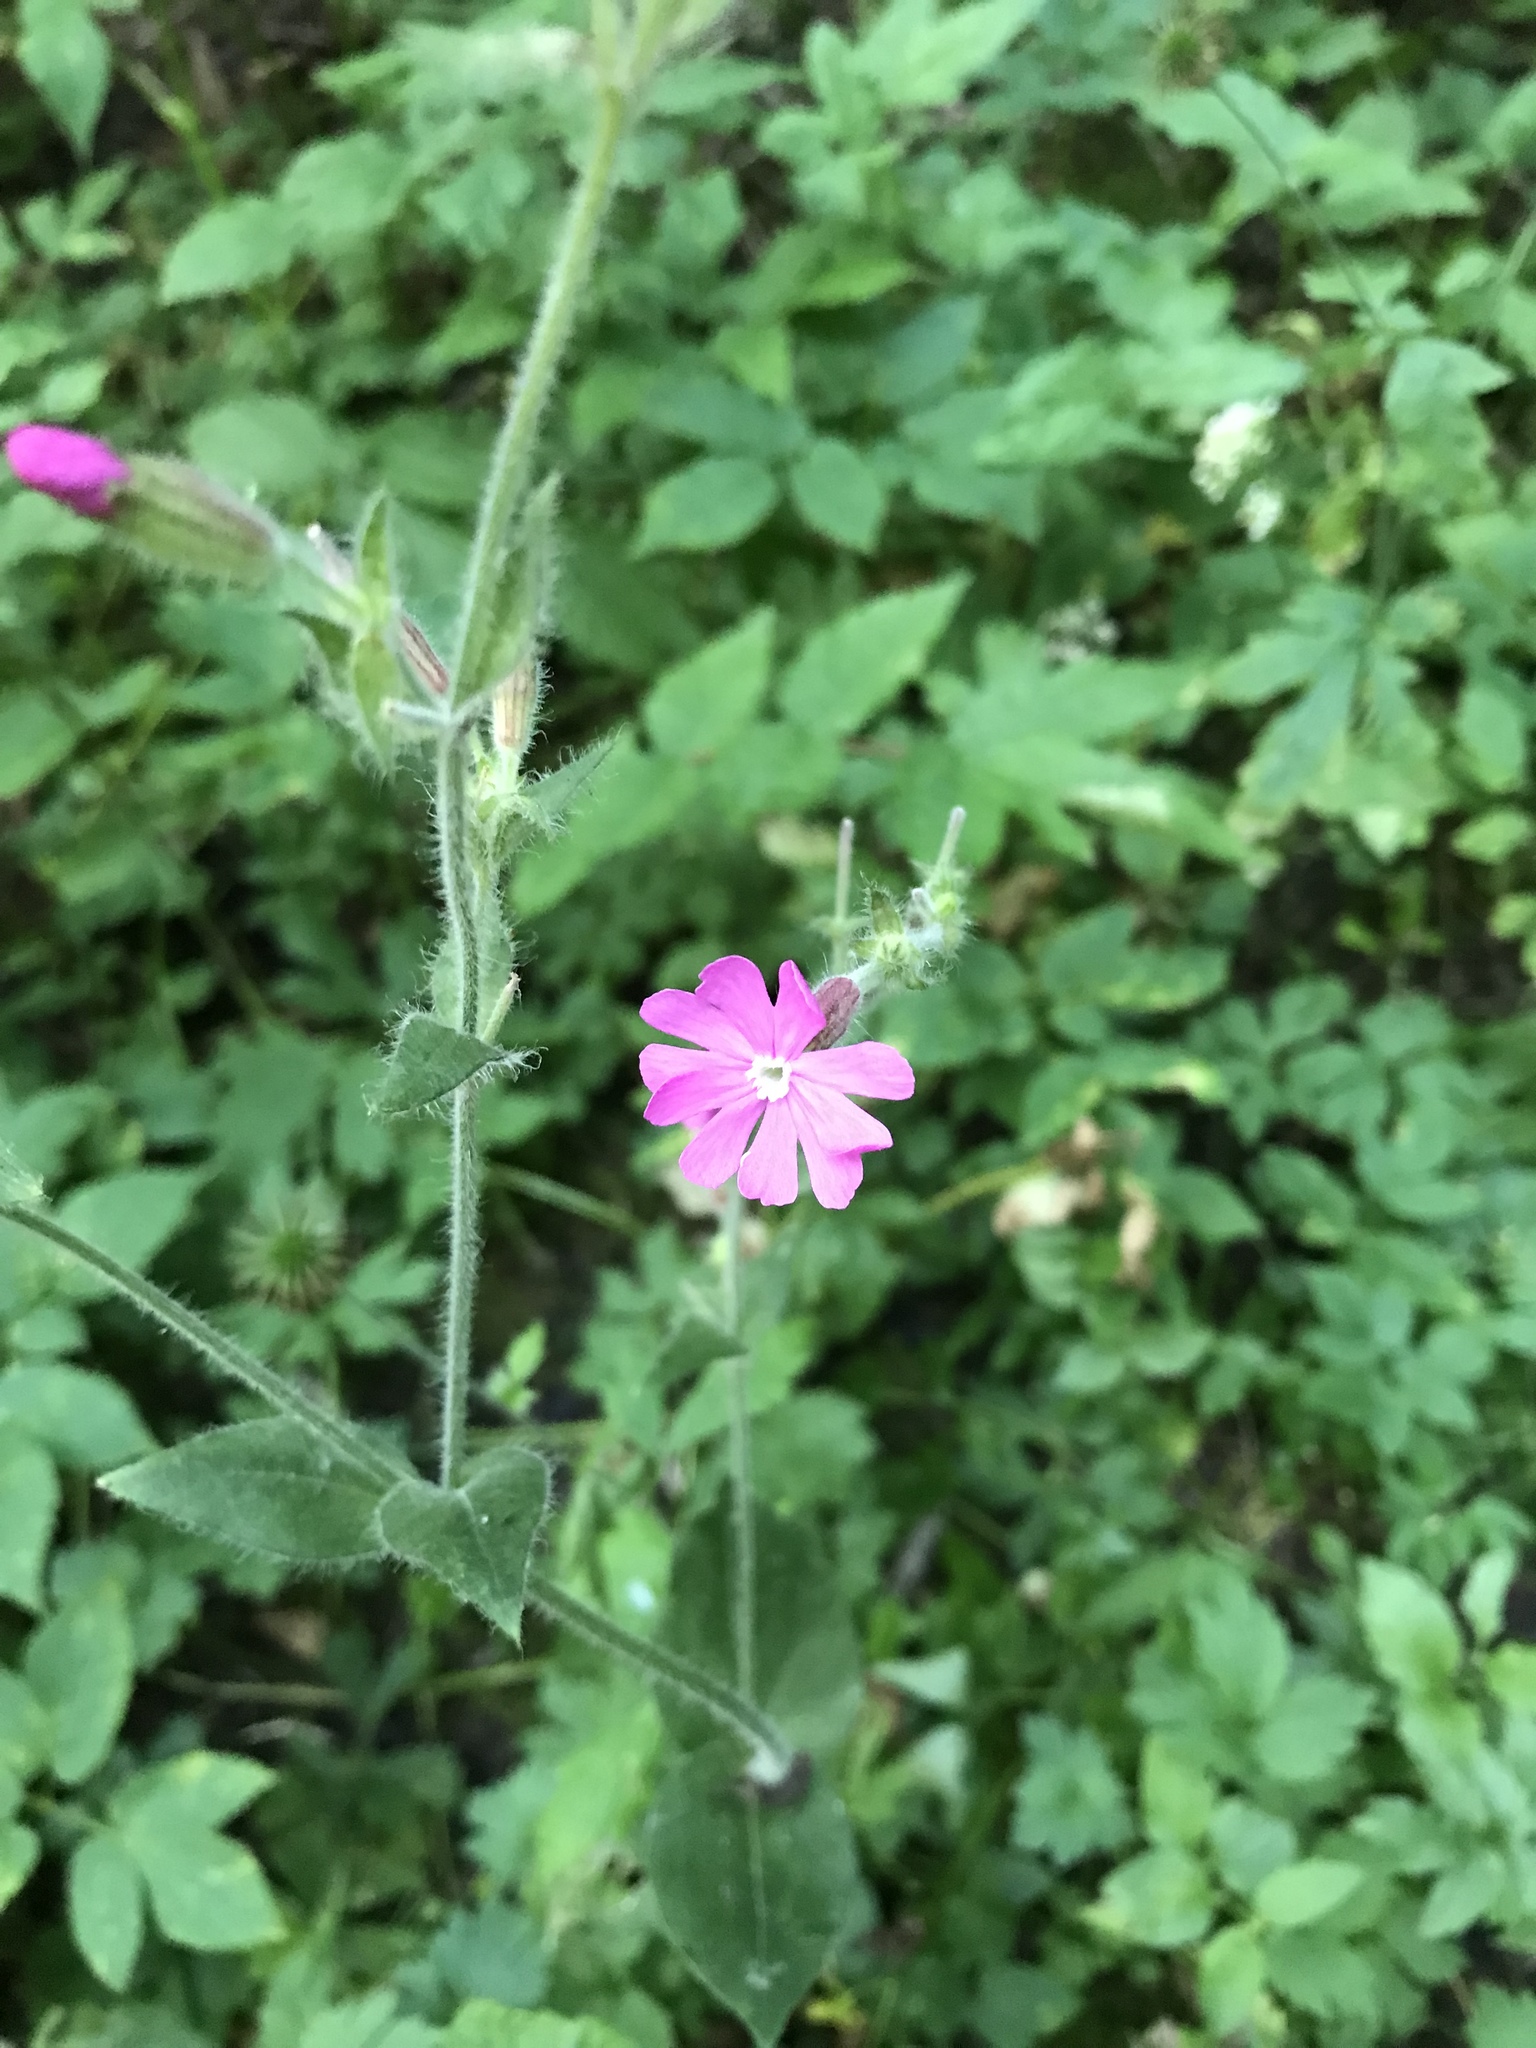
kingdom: Plantae
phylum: Tracheophyta
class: Magnoliopsida
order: Caryophyllales
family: Caryophyllaceae
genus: Silene
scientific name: Silene dioica
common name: Red campion
